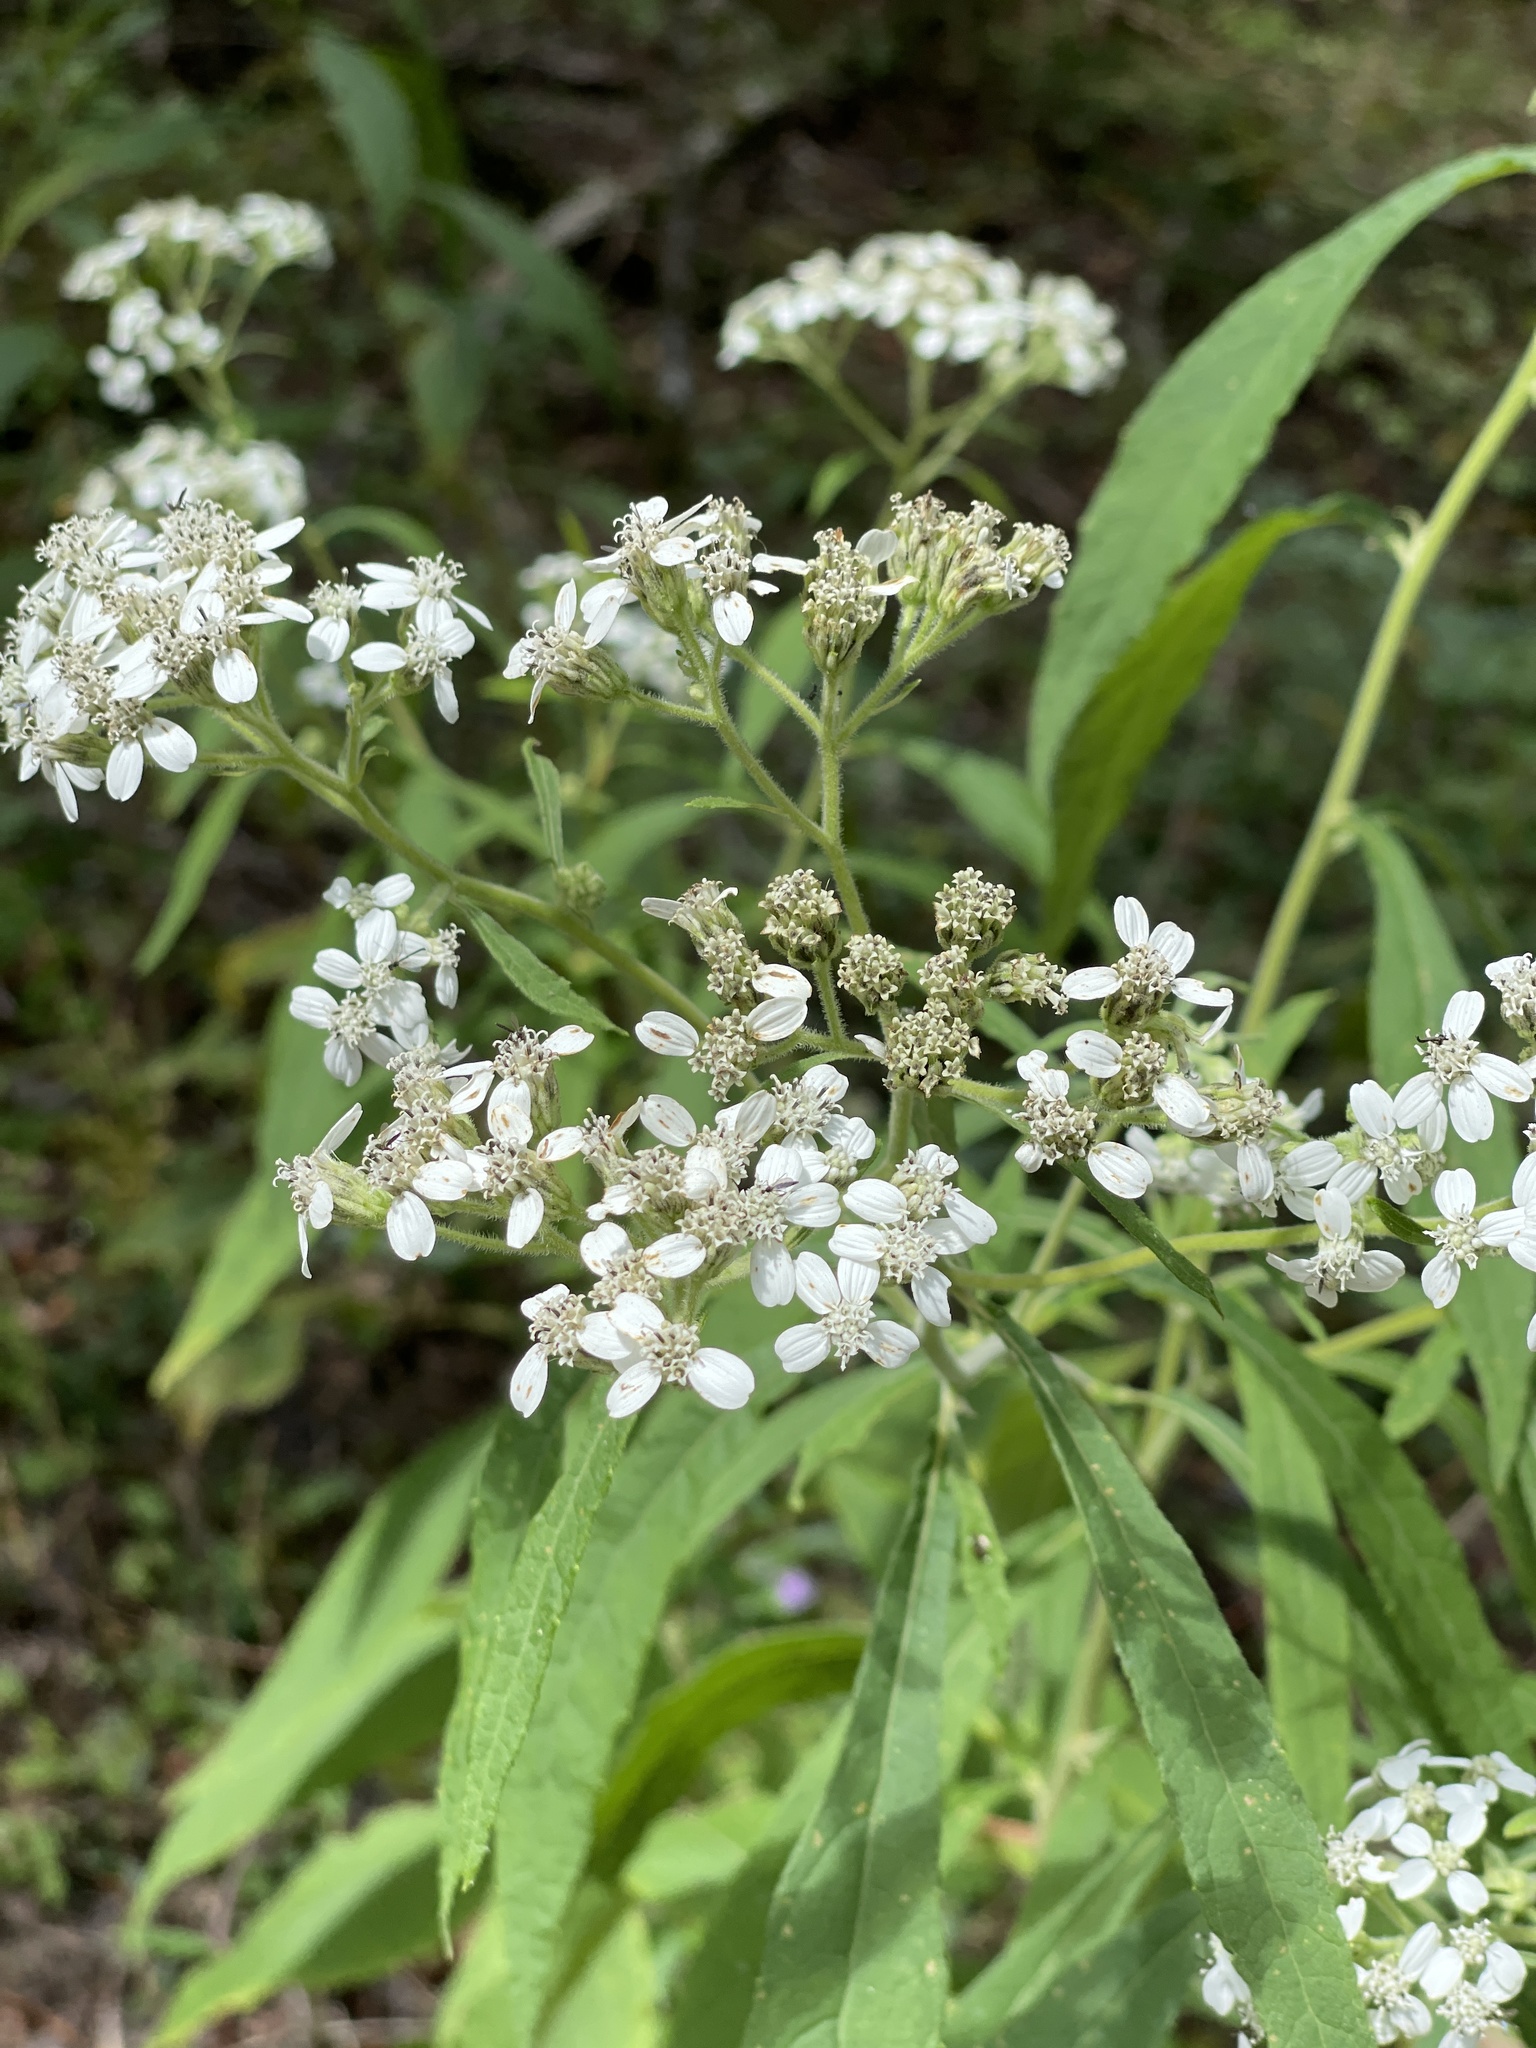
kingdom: Plantae
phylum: Tracheophyta
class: Magnoliopsida
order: Asterales
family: Asteraceae
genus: Verbesina
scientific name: Verbesina virginica
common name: Frostweed
